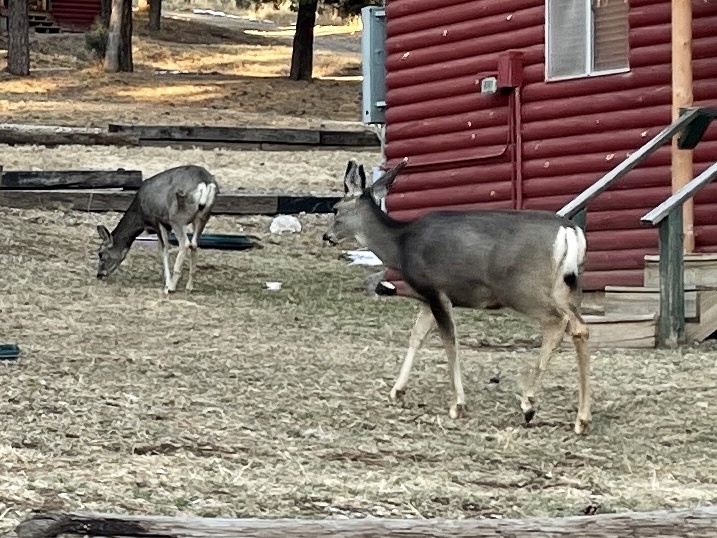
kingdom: Animalia
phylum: Chordata
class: Mammalia
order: Artiodactyla
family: Cervidae
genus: Odocoileus
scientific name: Odocoileus hemionus
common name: Mule deer
